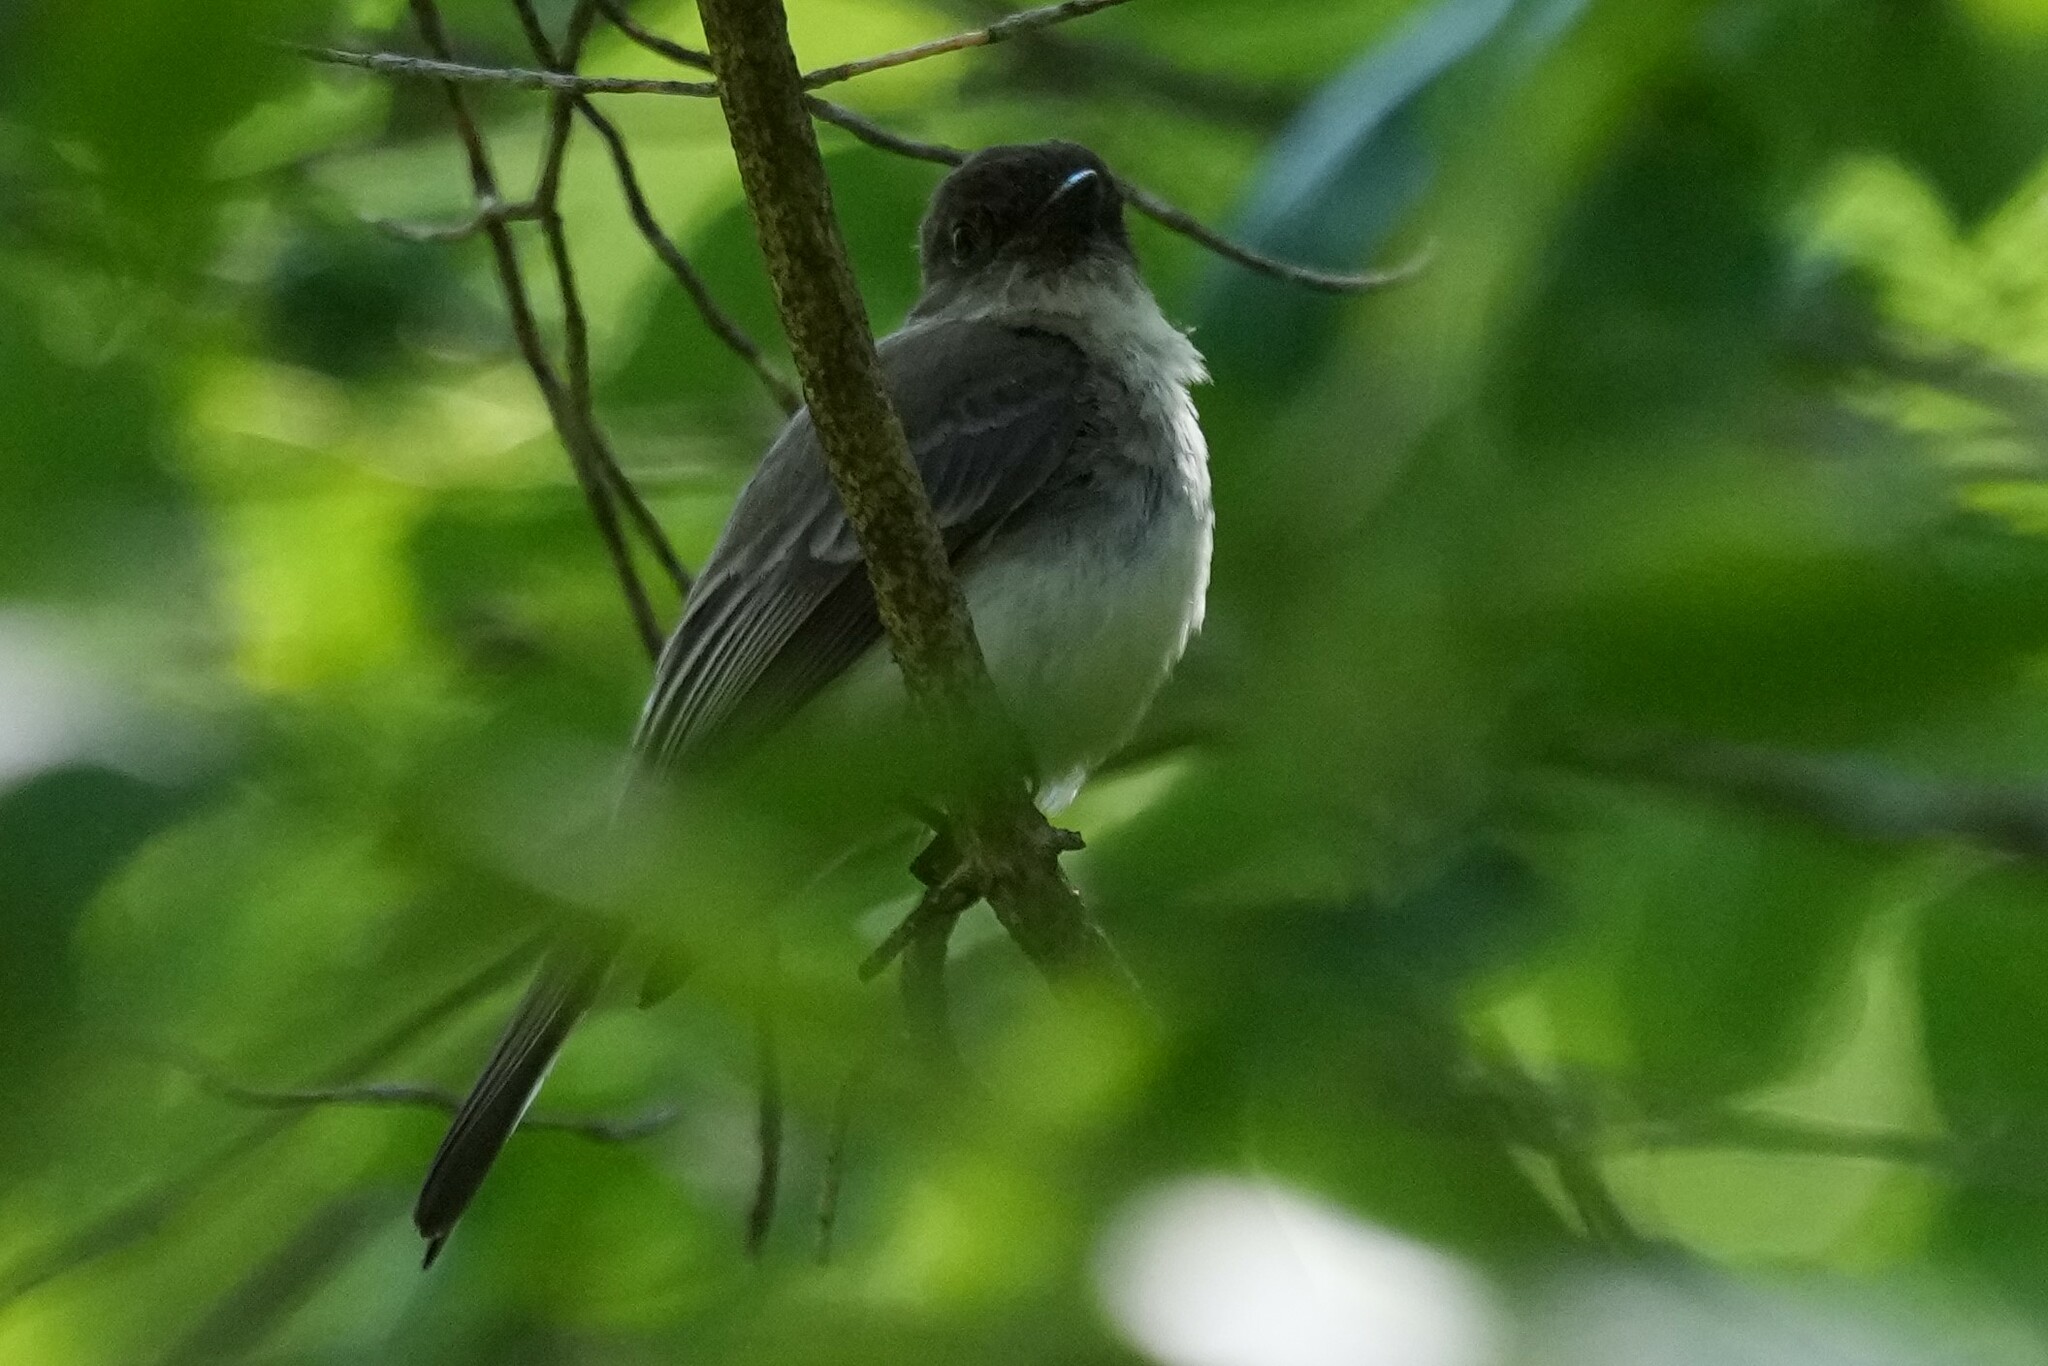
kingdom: Animalia
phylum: Chordata
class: Aves
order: Passeriformes
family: Tyrannidae
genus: Sayornis
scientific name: Sayornis phoebe
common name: Eastern phoebe
